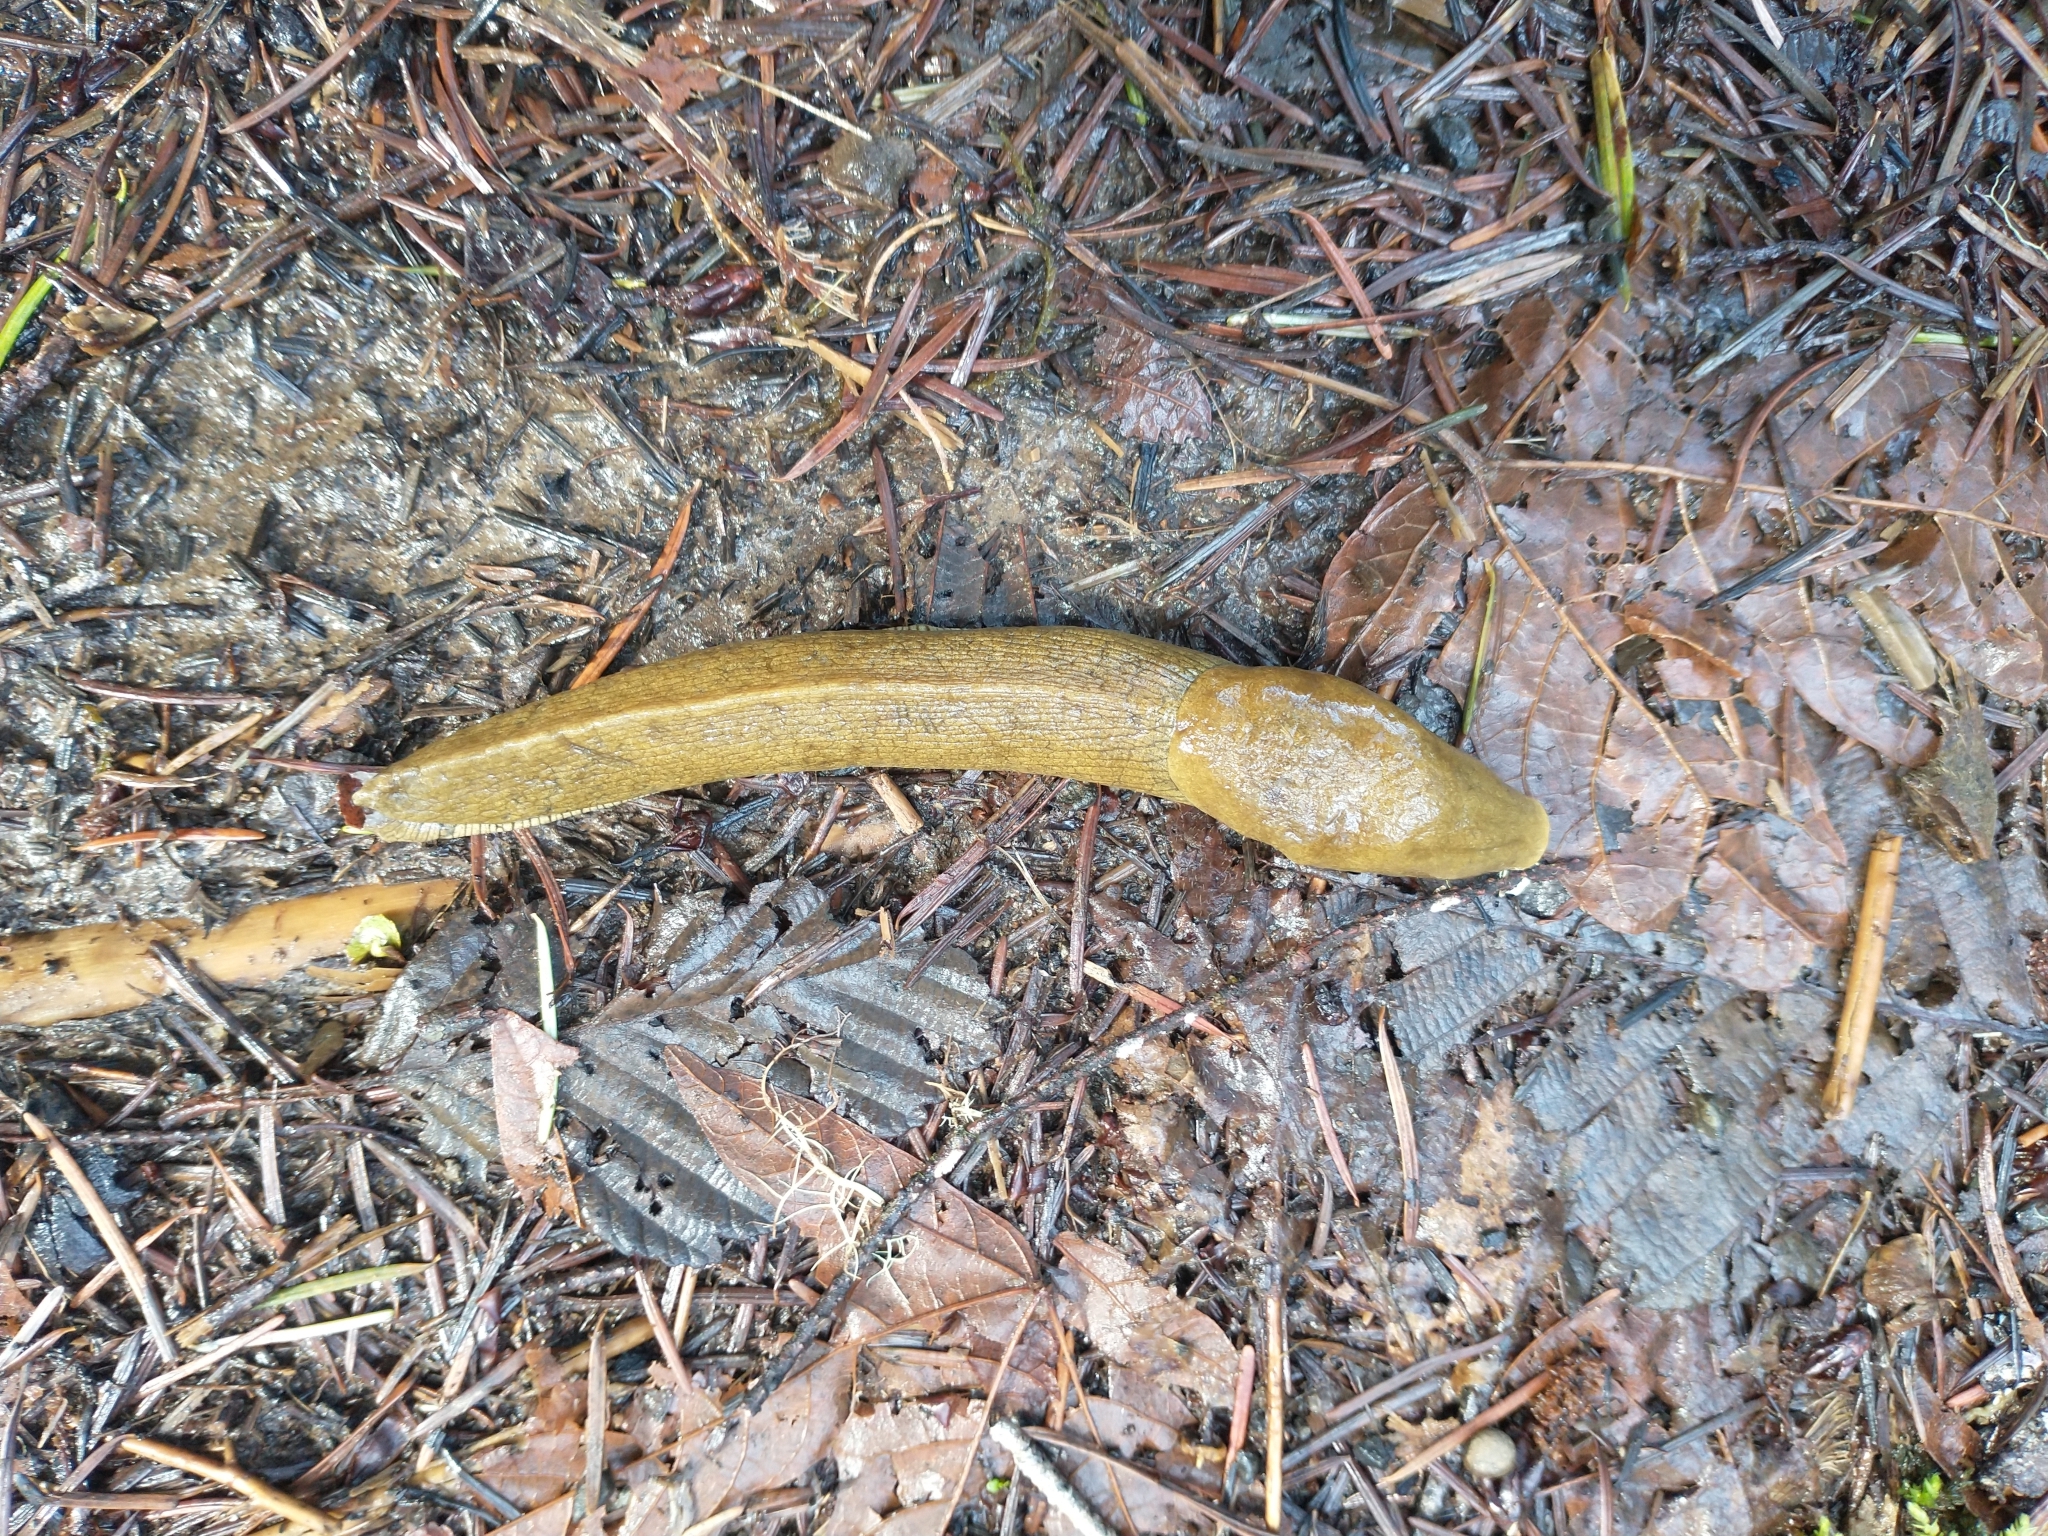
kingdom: Animalia
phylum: Mollusca
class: Gastropoda
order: Stylommatophora
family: Ariolimacidae
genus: Ariolimax
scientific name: Ariolimax columbianus
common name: Pacific banana slug
